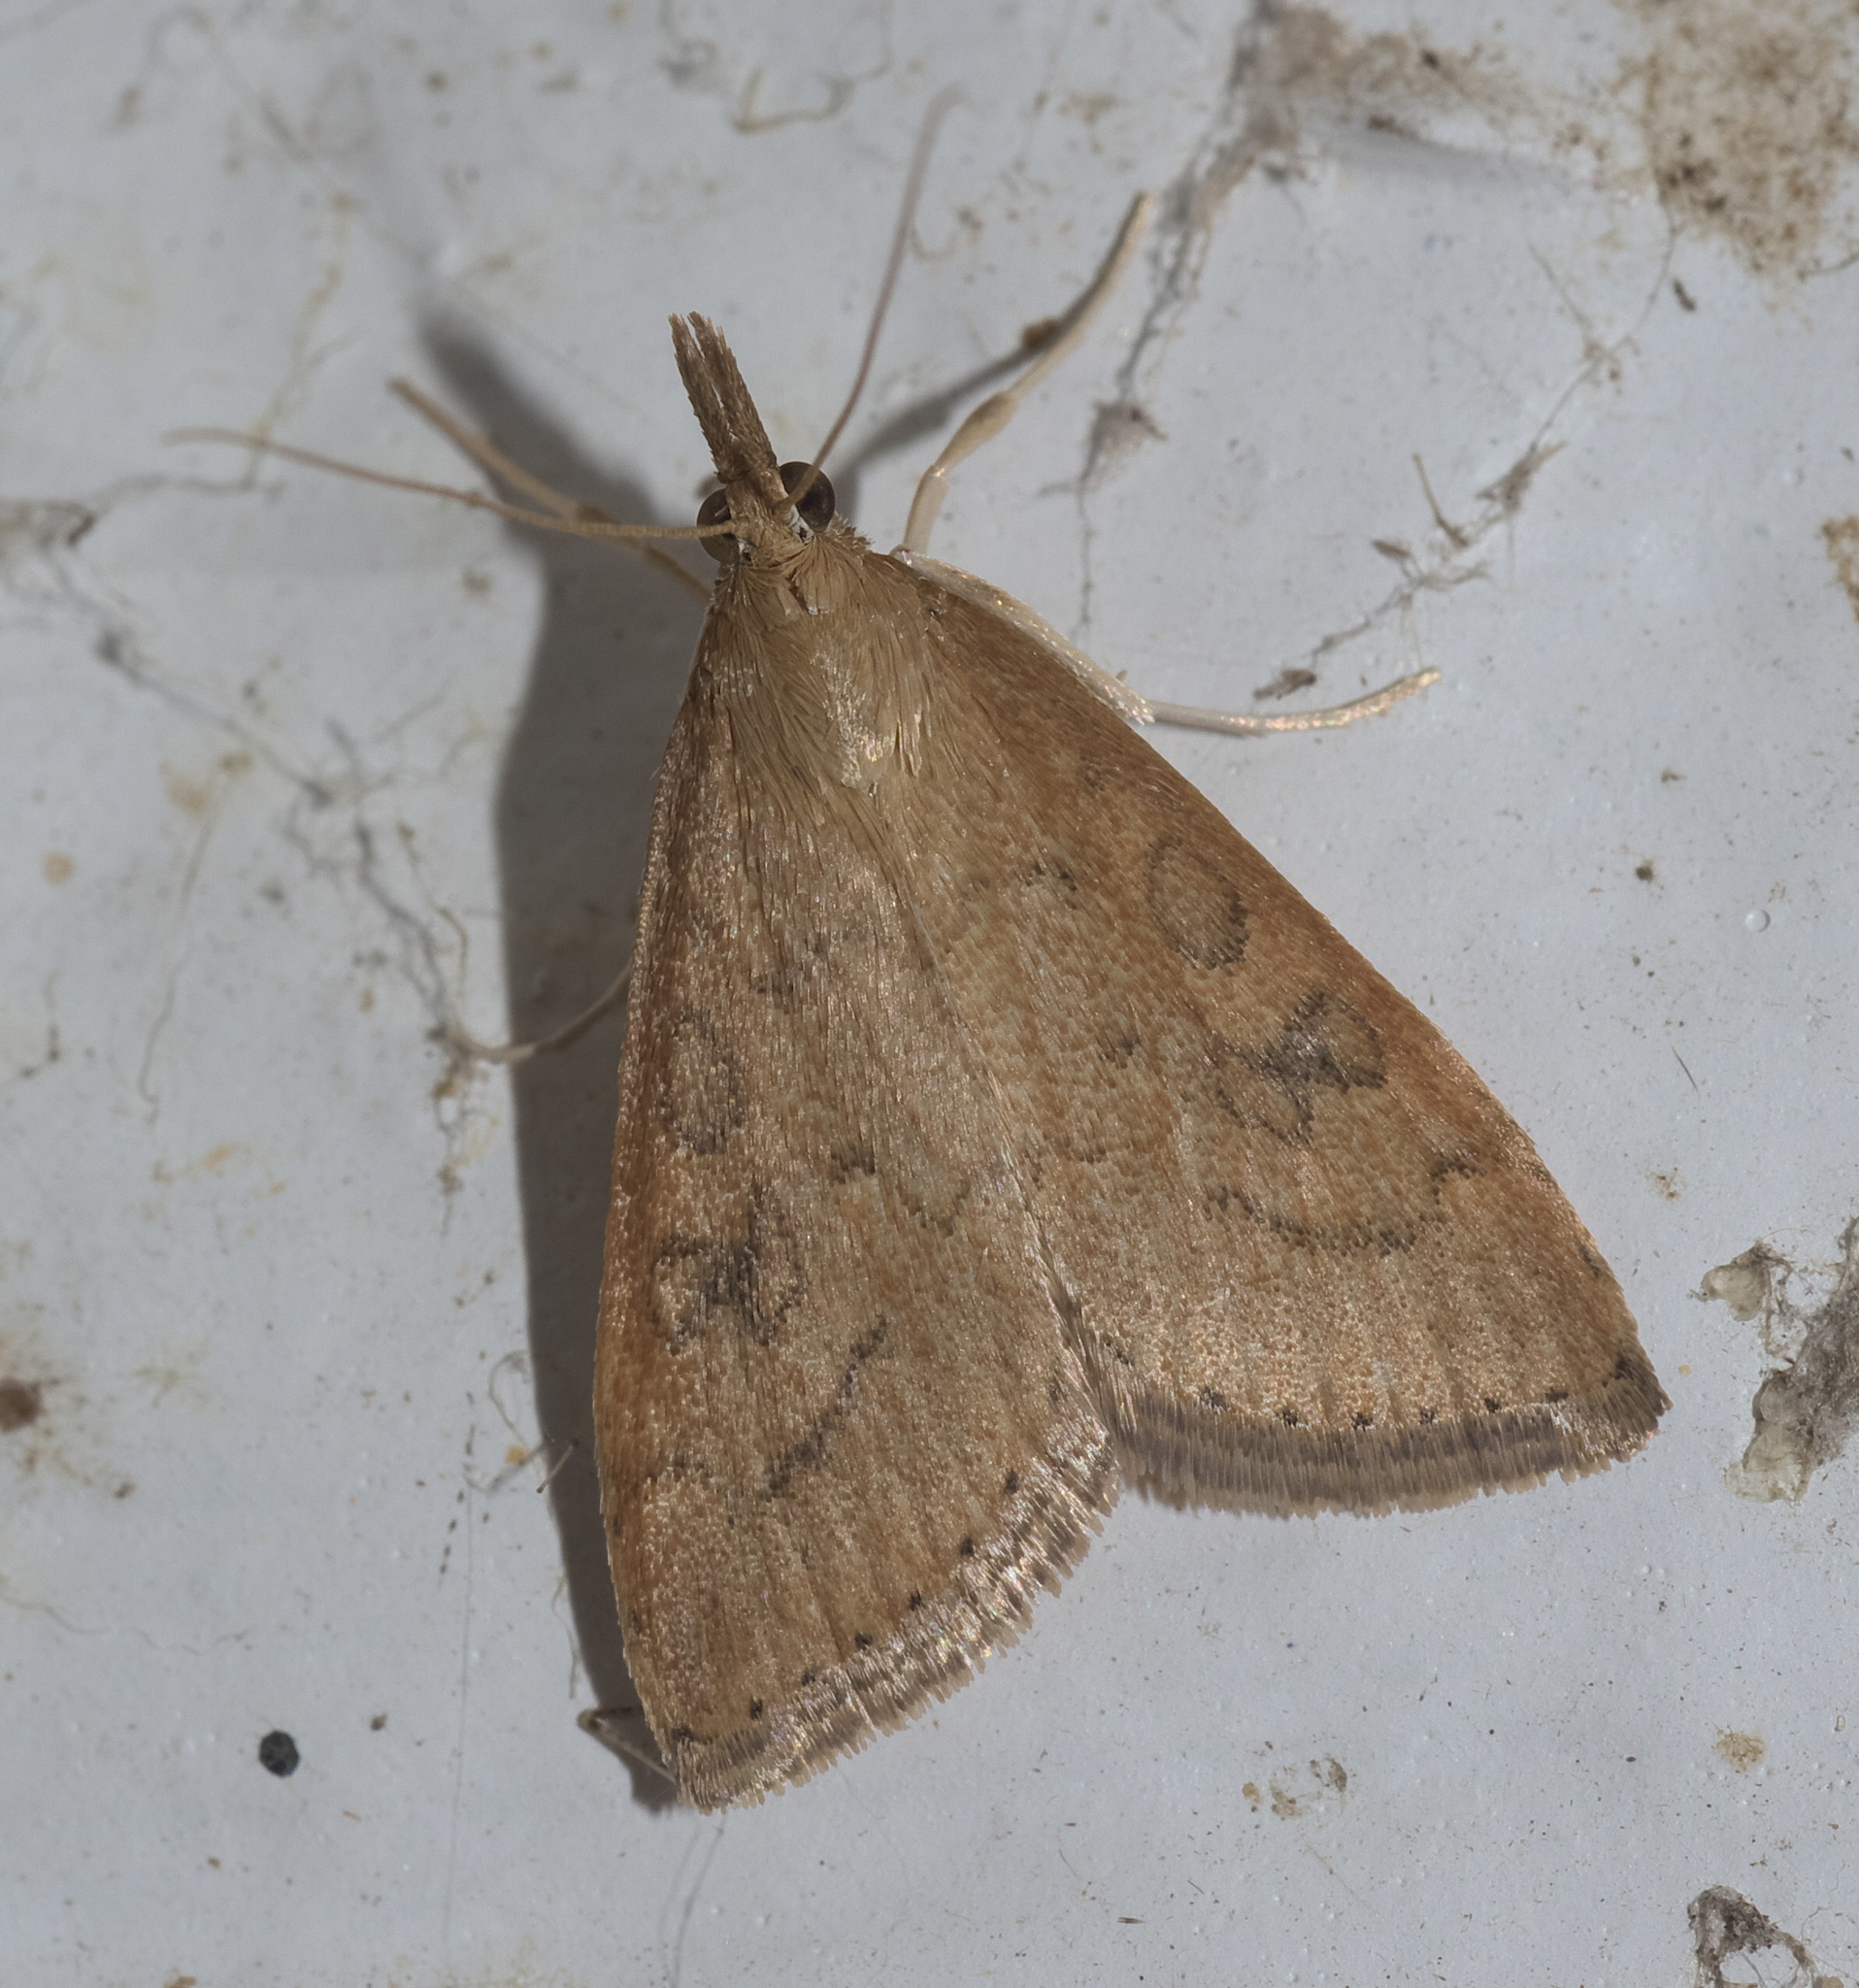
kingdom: Animalia
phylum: Arthropoda
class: Insecta
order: Lepidoptera
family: Crambidae
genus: Udea
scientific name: Udea rubigalis
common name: Celery leaftier moth
